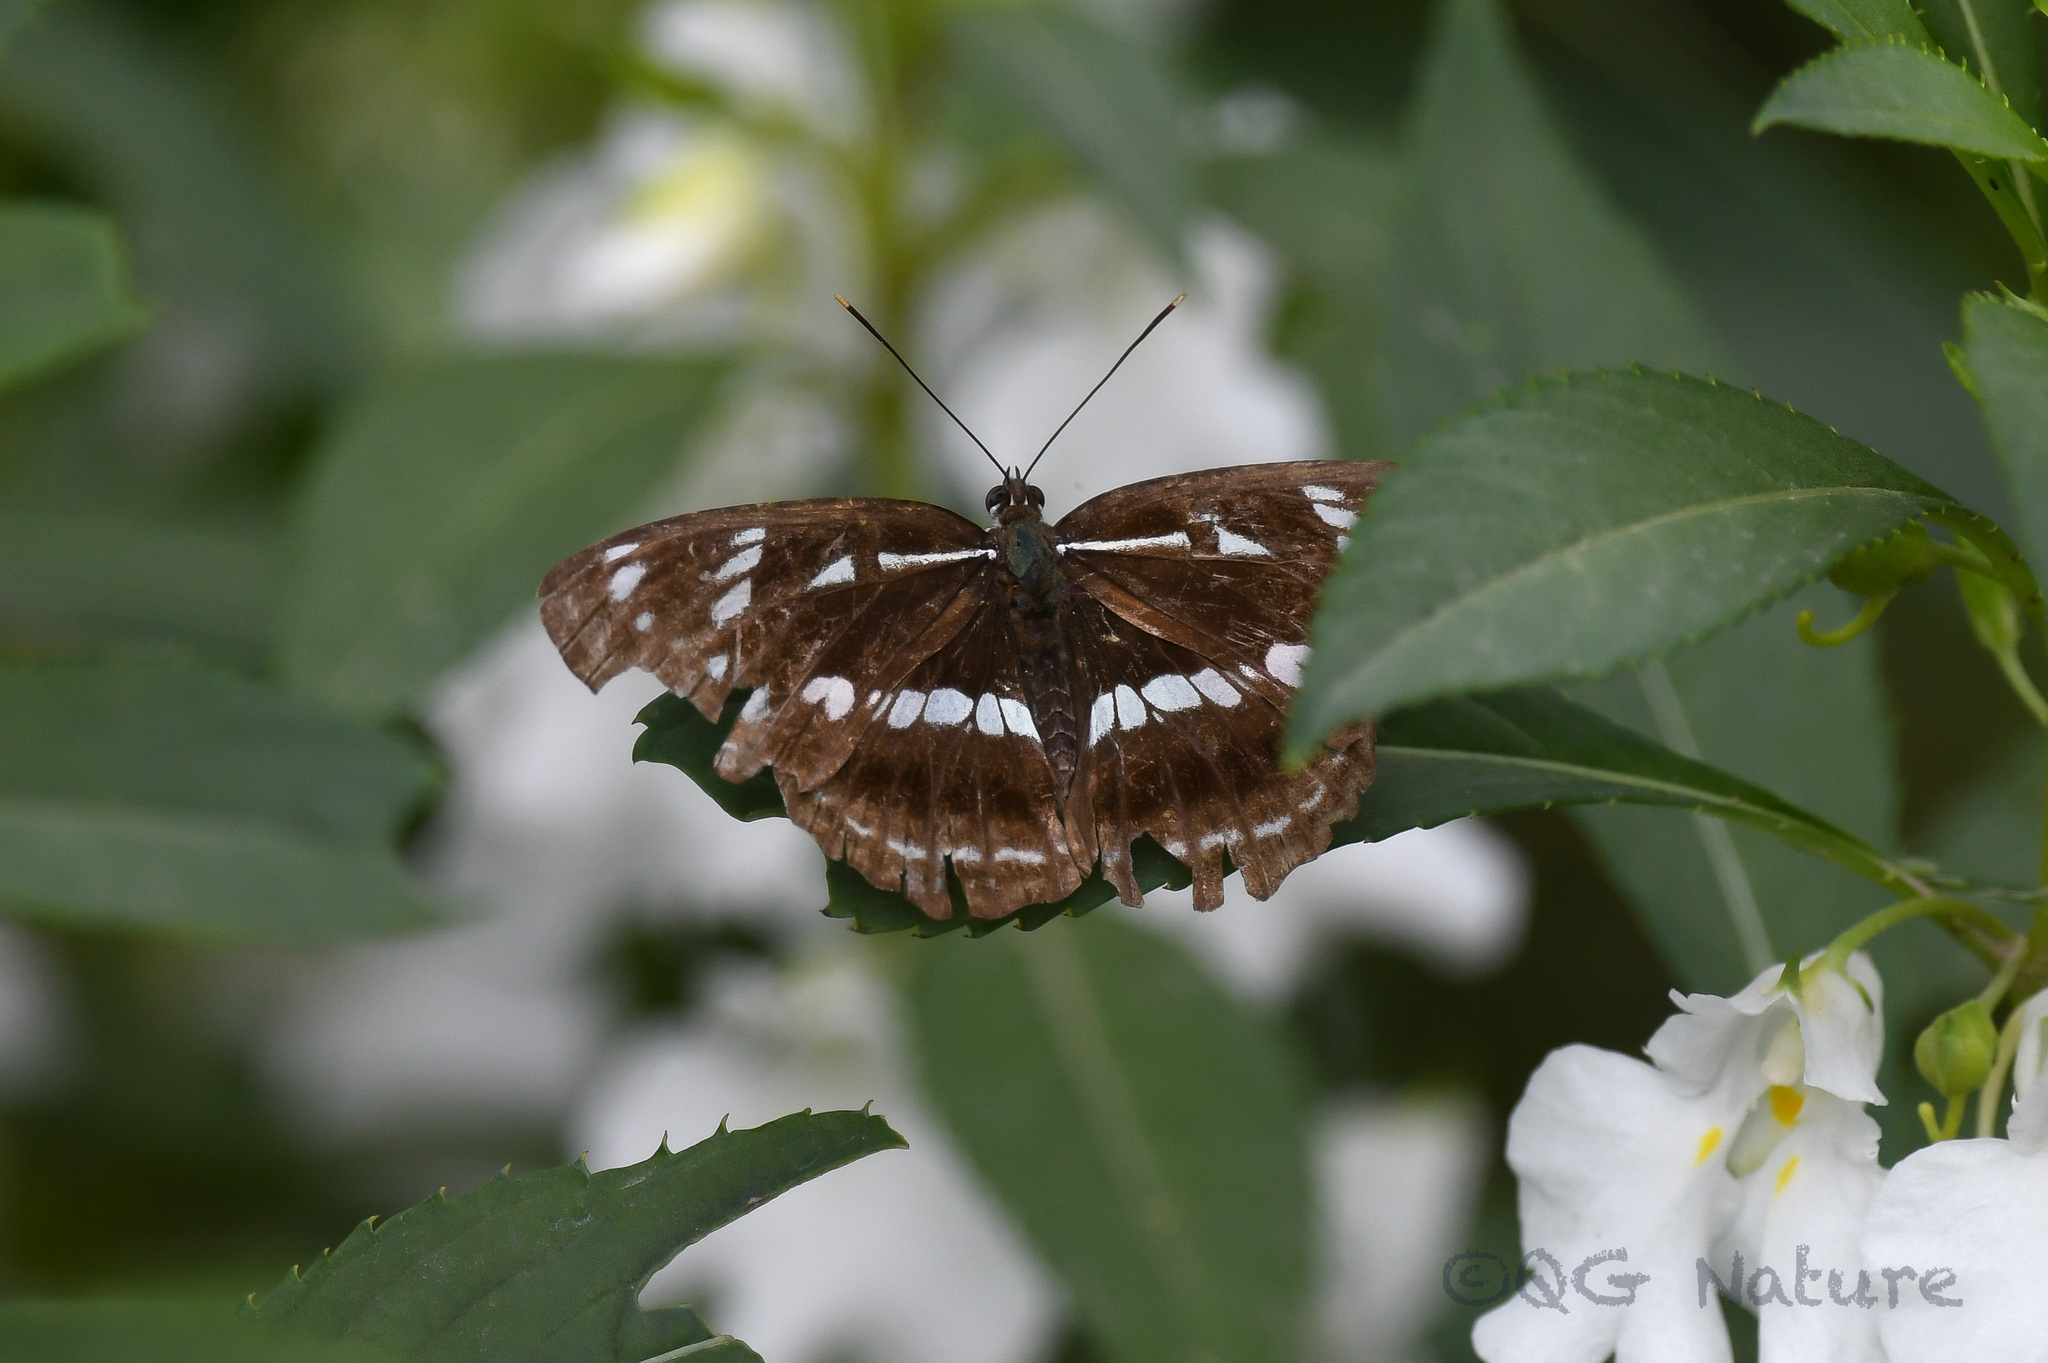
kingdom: Animalia
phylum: Arthropoda
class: Insecta
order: Lepidoptera
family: Nymphalidae
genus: Limenitis
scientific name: Limenitis helmanni
